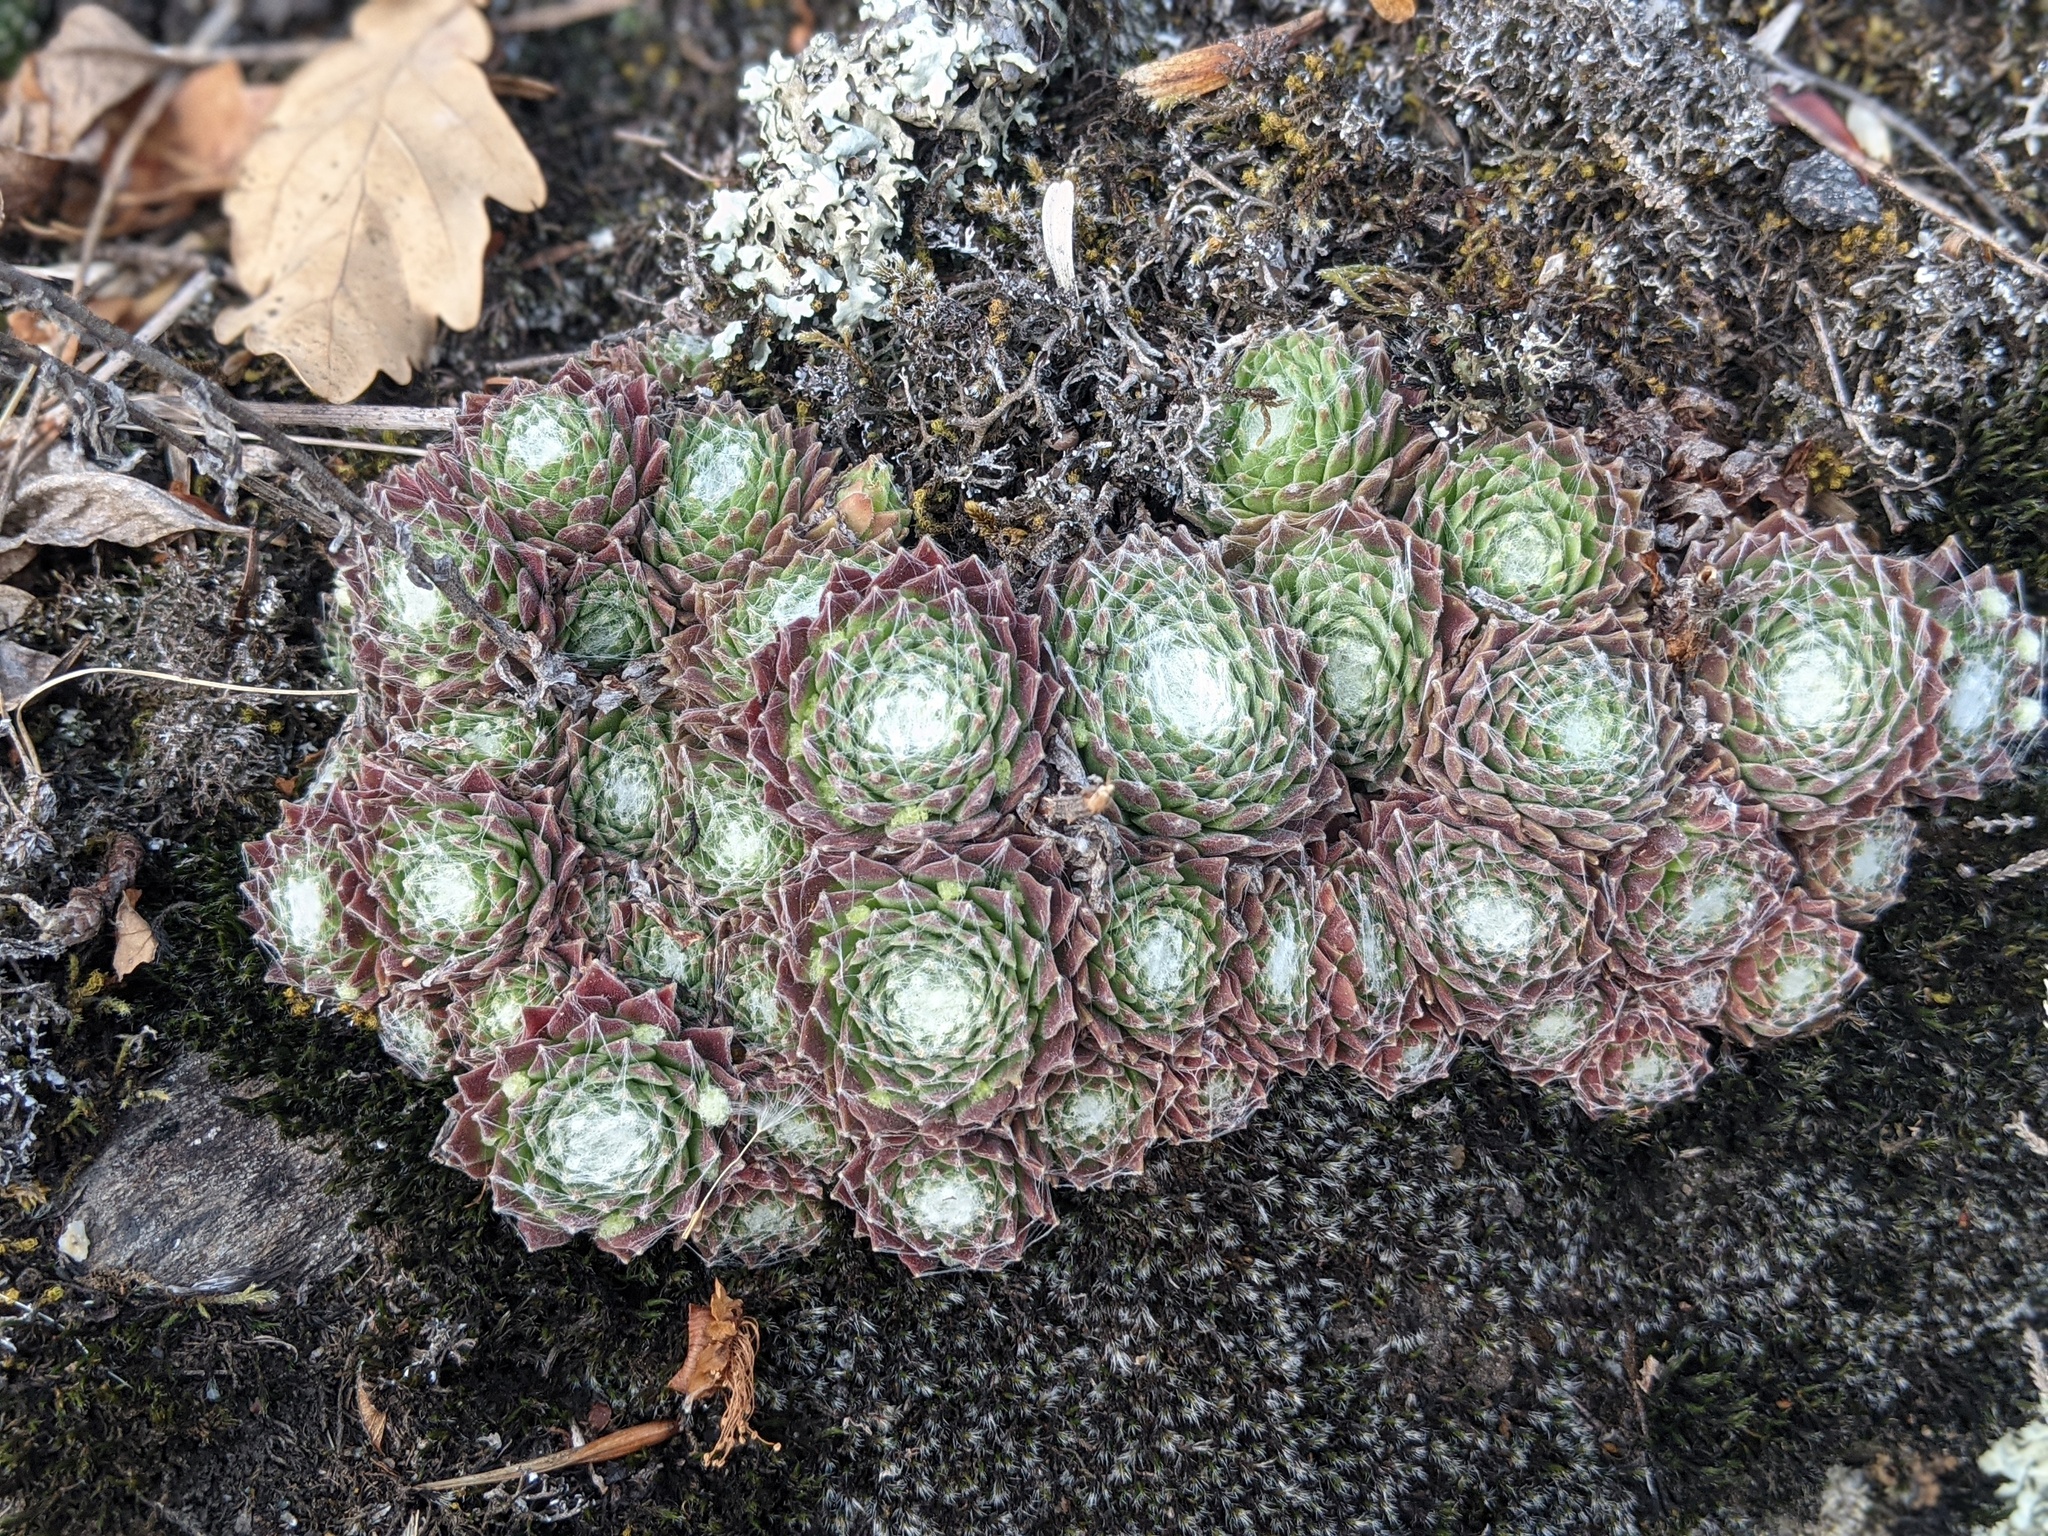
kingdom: Plantae
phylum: Tracheophyta
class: Magnoliopsida
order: Saxifragales
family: Crassulaceae
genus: Sempervivum
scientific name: Sempervivum arachnoideum
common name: Cobweb house-leek
